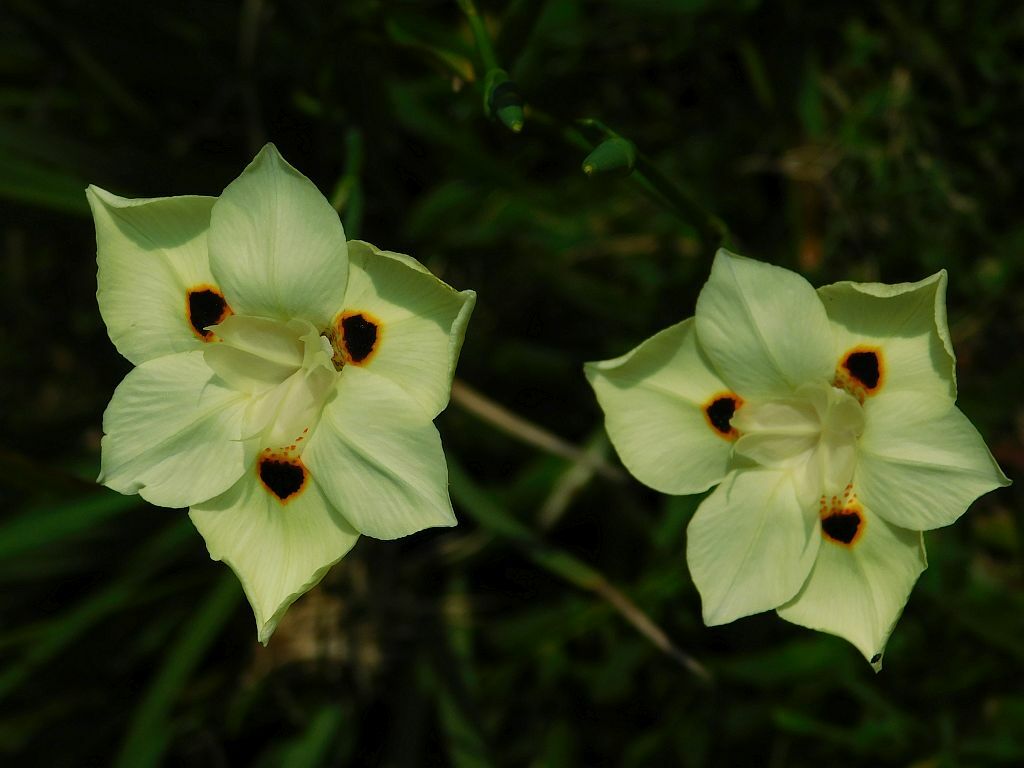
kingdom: Plantae
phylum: Tracheophyta
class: Liliopsida
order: Asparagales
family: Iridaceae
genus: Dietes
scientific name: Dietes bicolor
